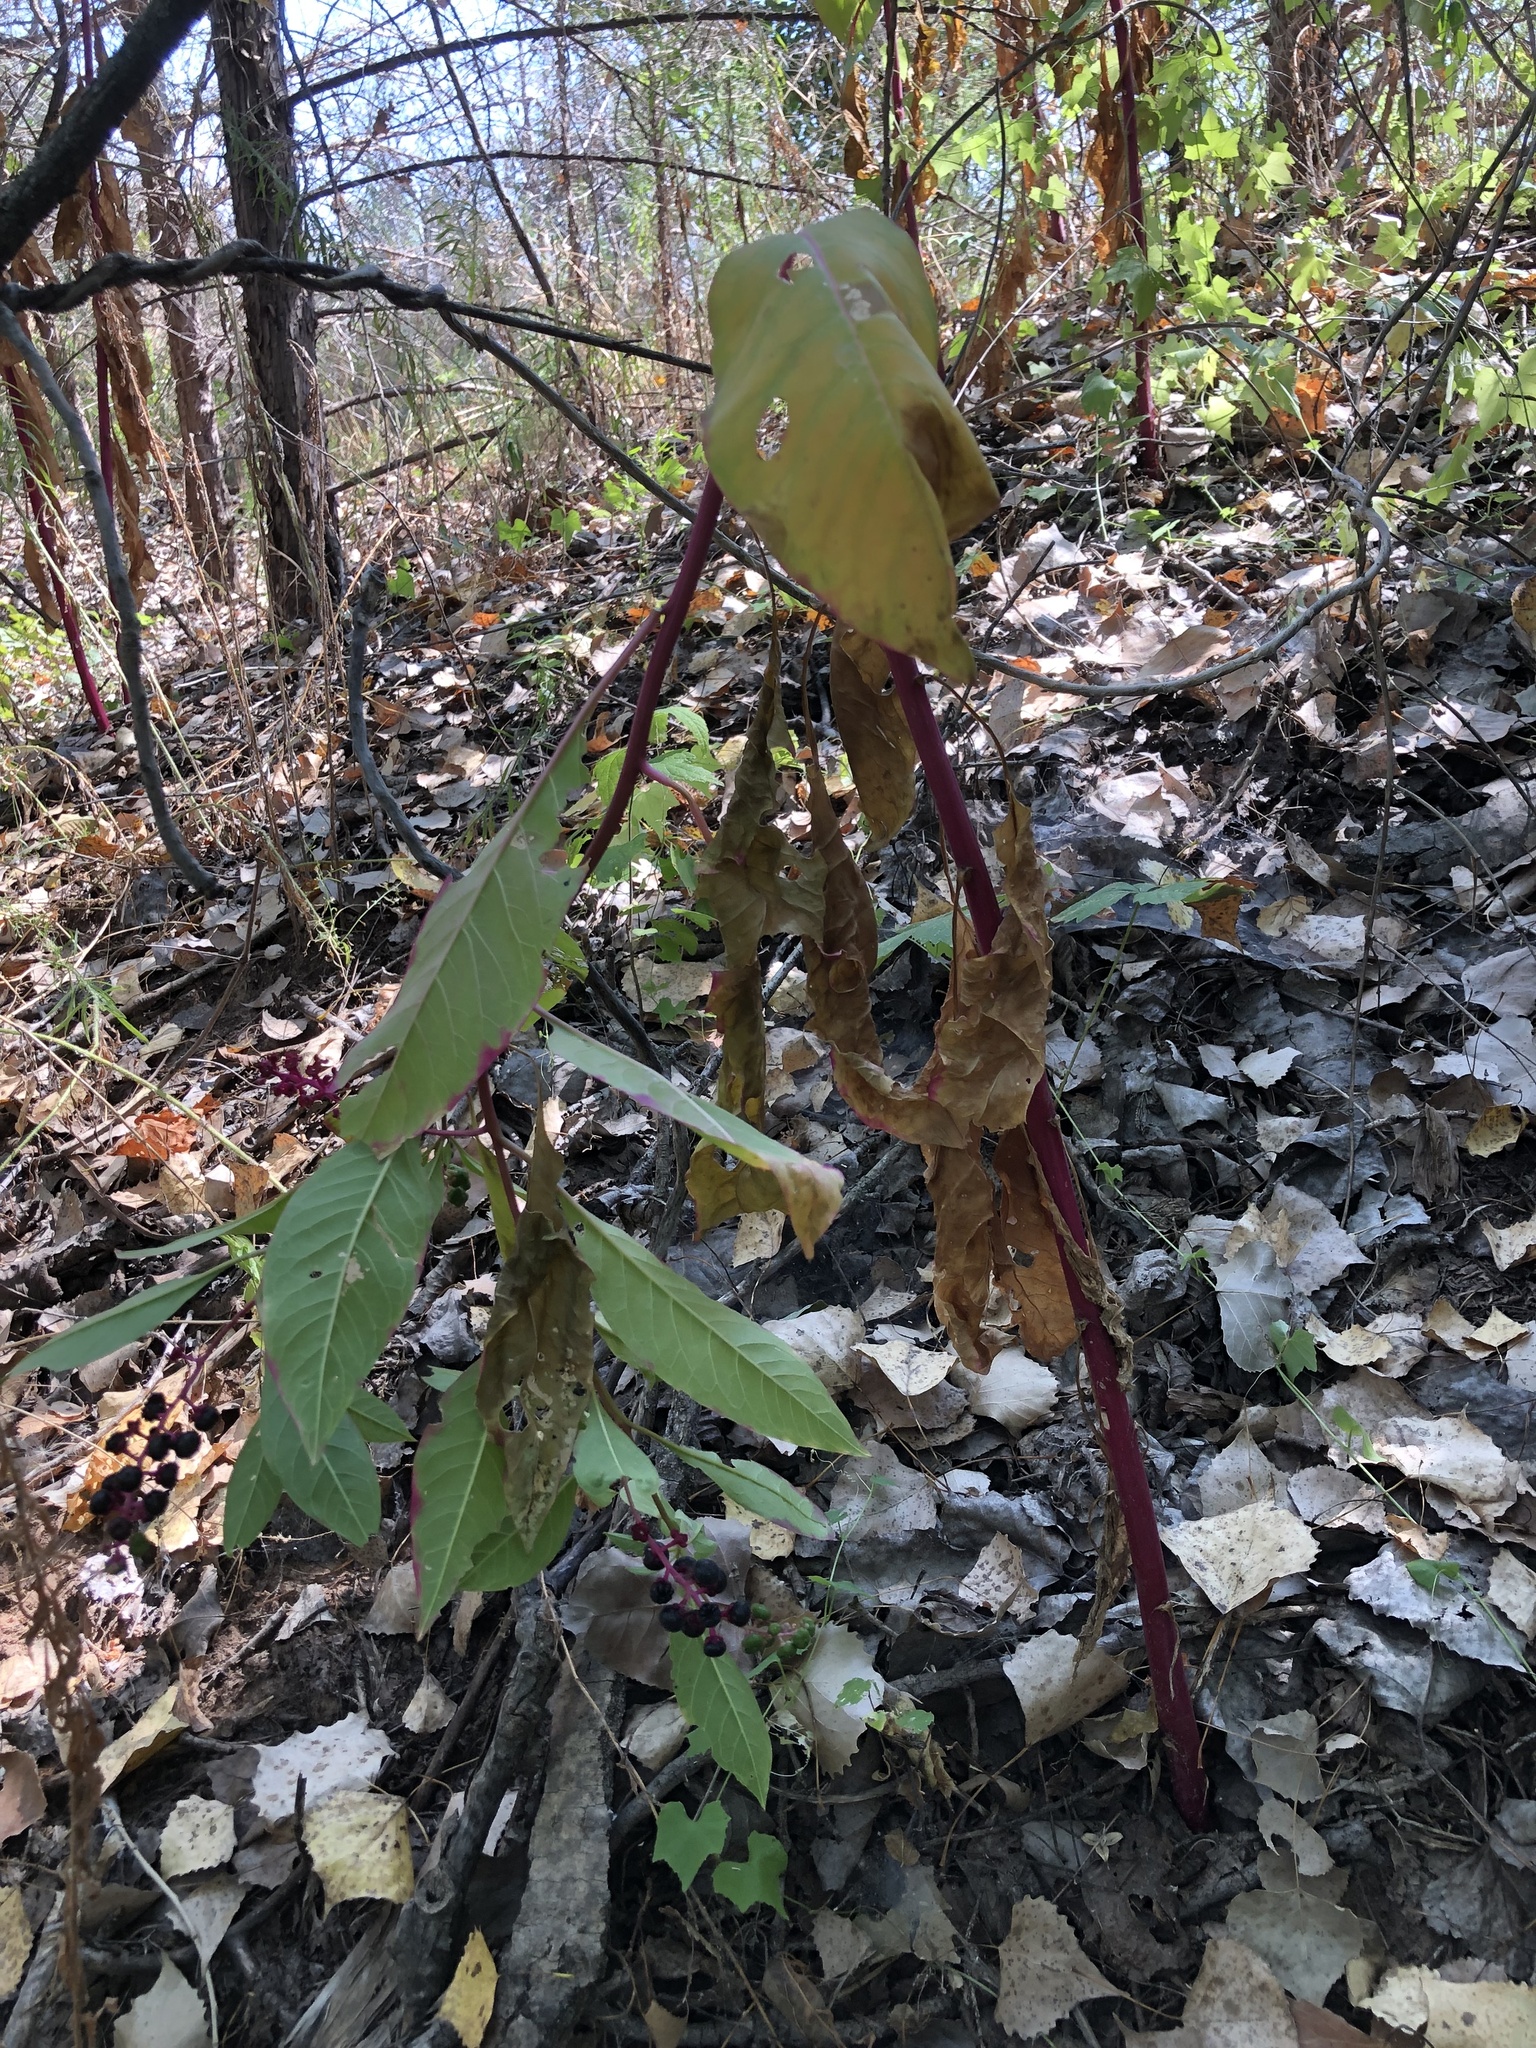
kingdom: Plantae
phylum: Tracheophyta
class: Magnoliopsida
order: Caryophyllales
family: Phytolaccaceae
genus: Phytolacca
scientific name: Phytolacca americana
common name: American pokeweed
